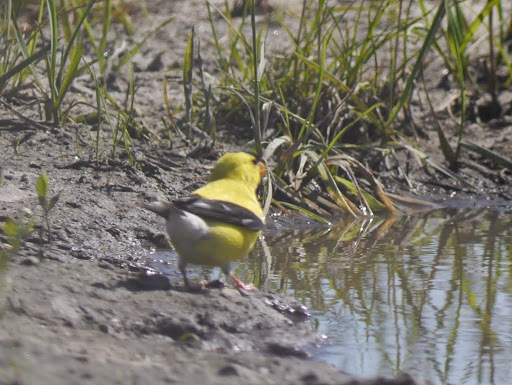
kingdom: Animalia
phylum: Chordata
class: Aves
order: Passeriformes
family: Fringillidae
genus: Spinus
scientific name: Spinus tristis
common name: American goldfinch
